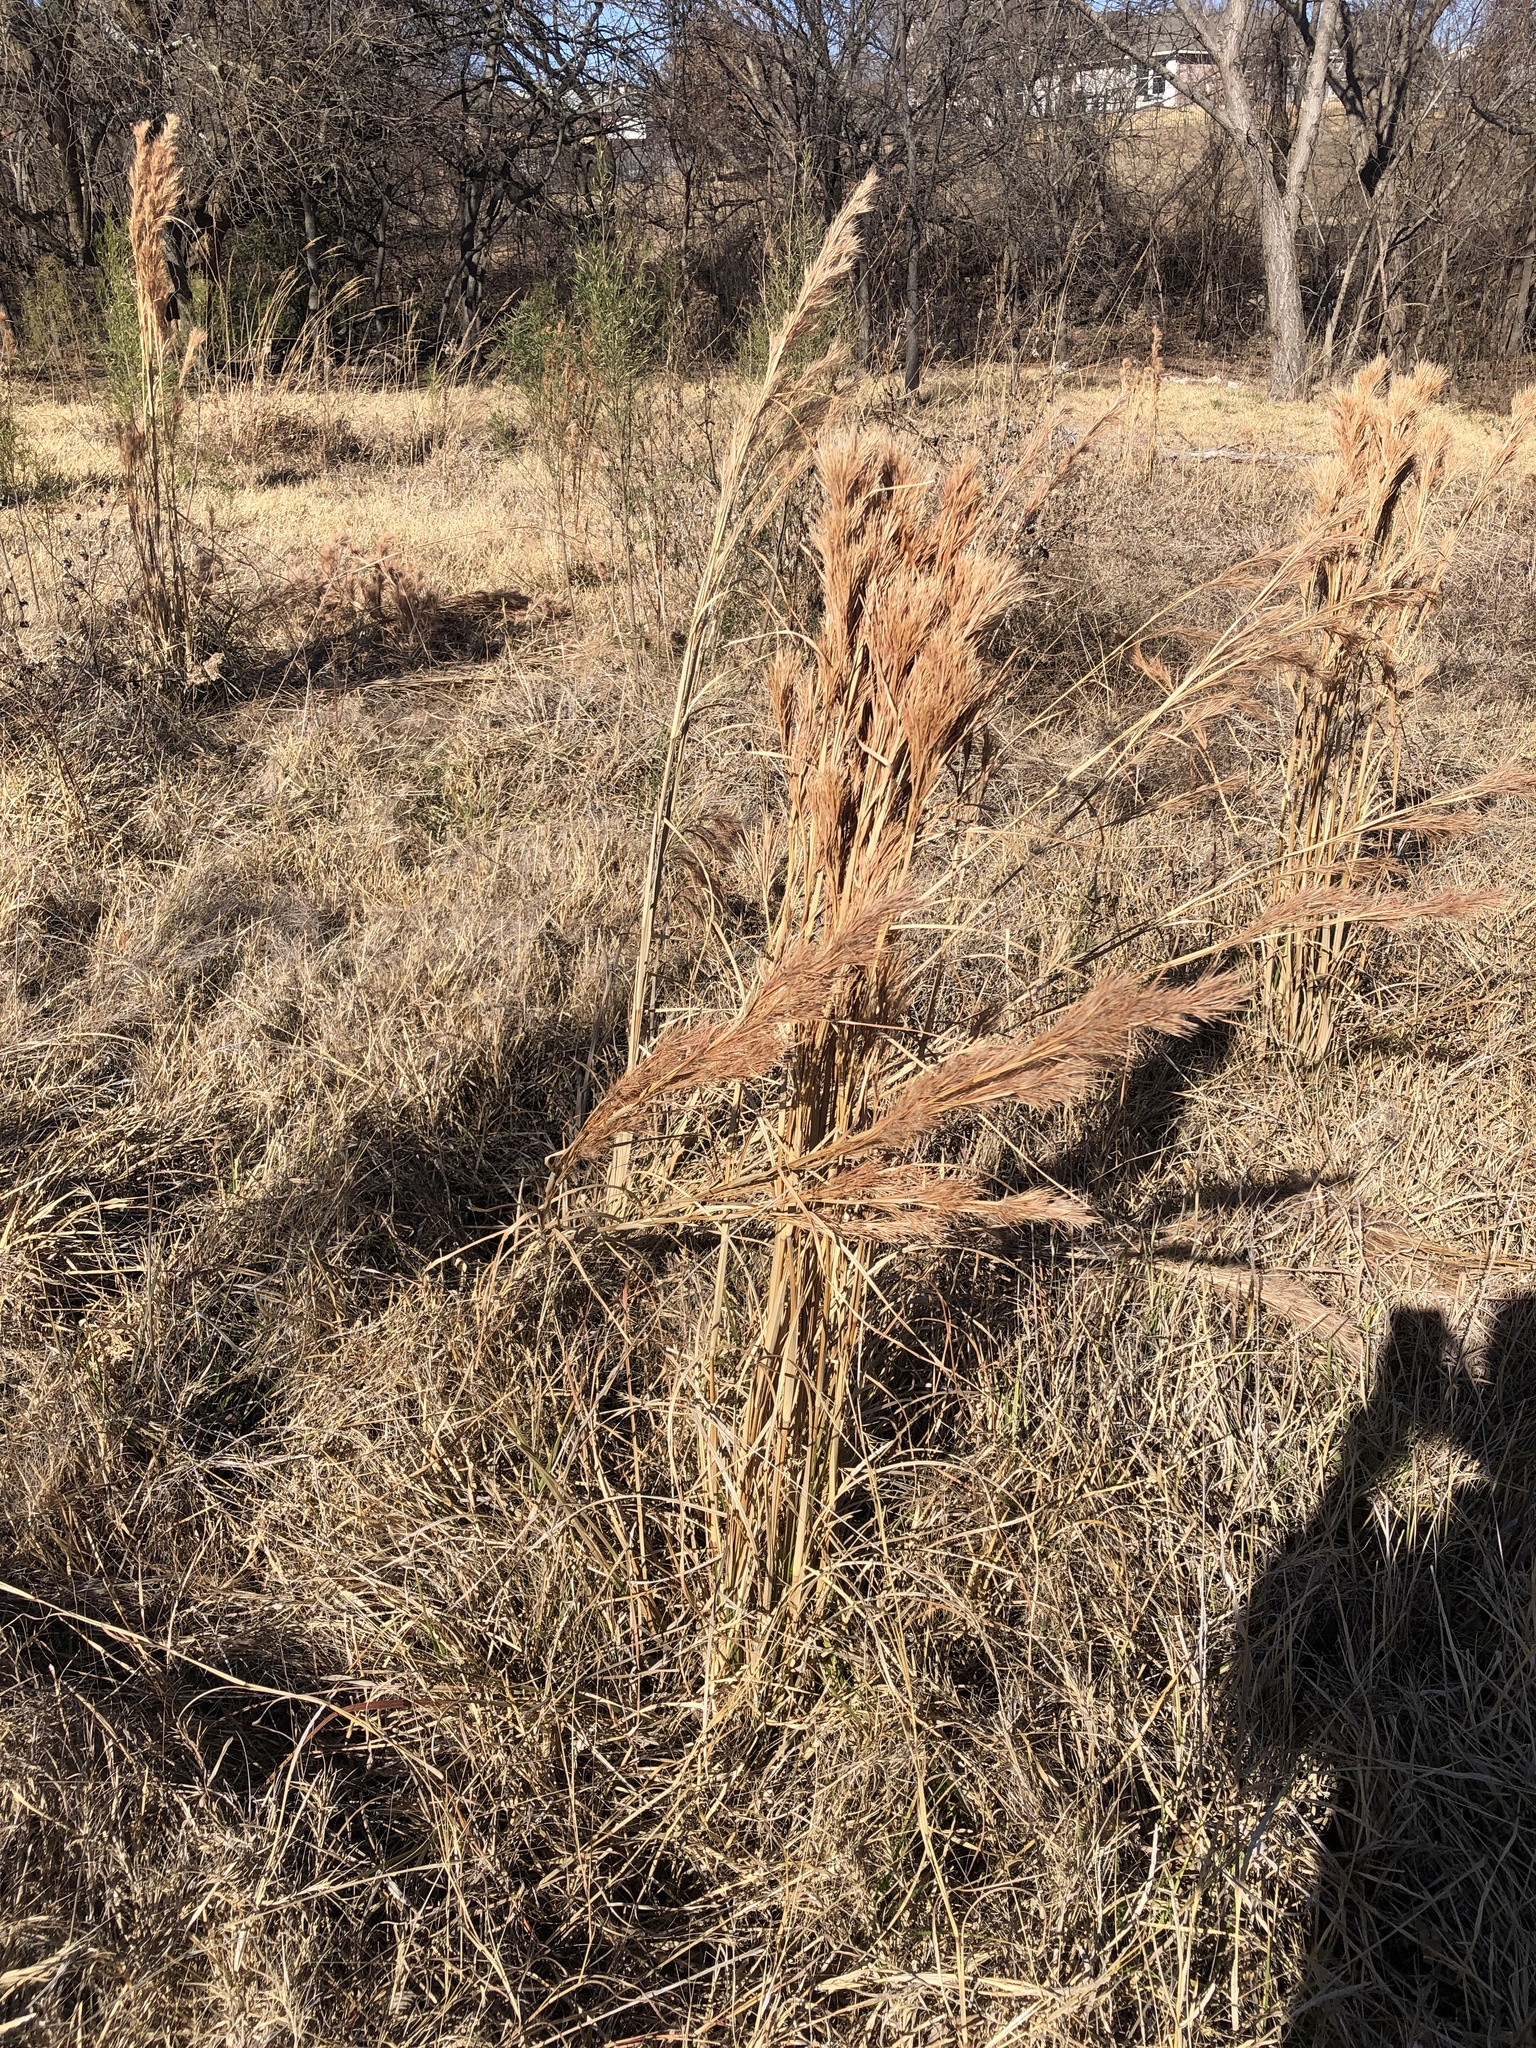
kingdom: Plantae
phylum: Tracheophyta
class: Liliopsida
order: Poales
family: Poaceae
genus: Andropogon
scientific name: Andropogon tenuispatheus
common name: Bushy bluestem
